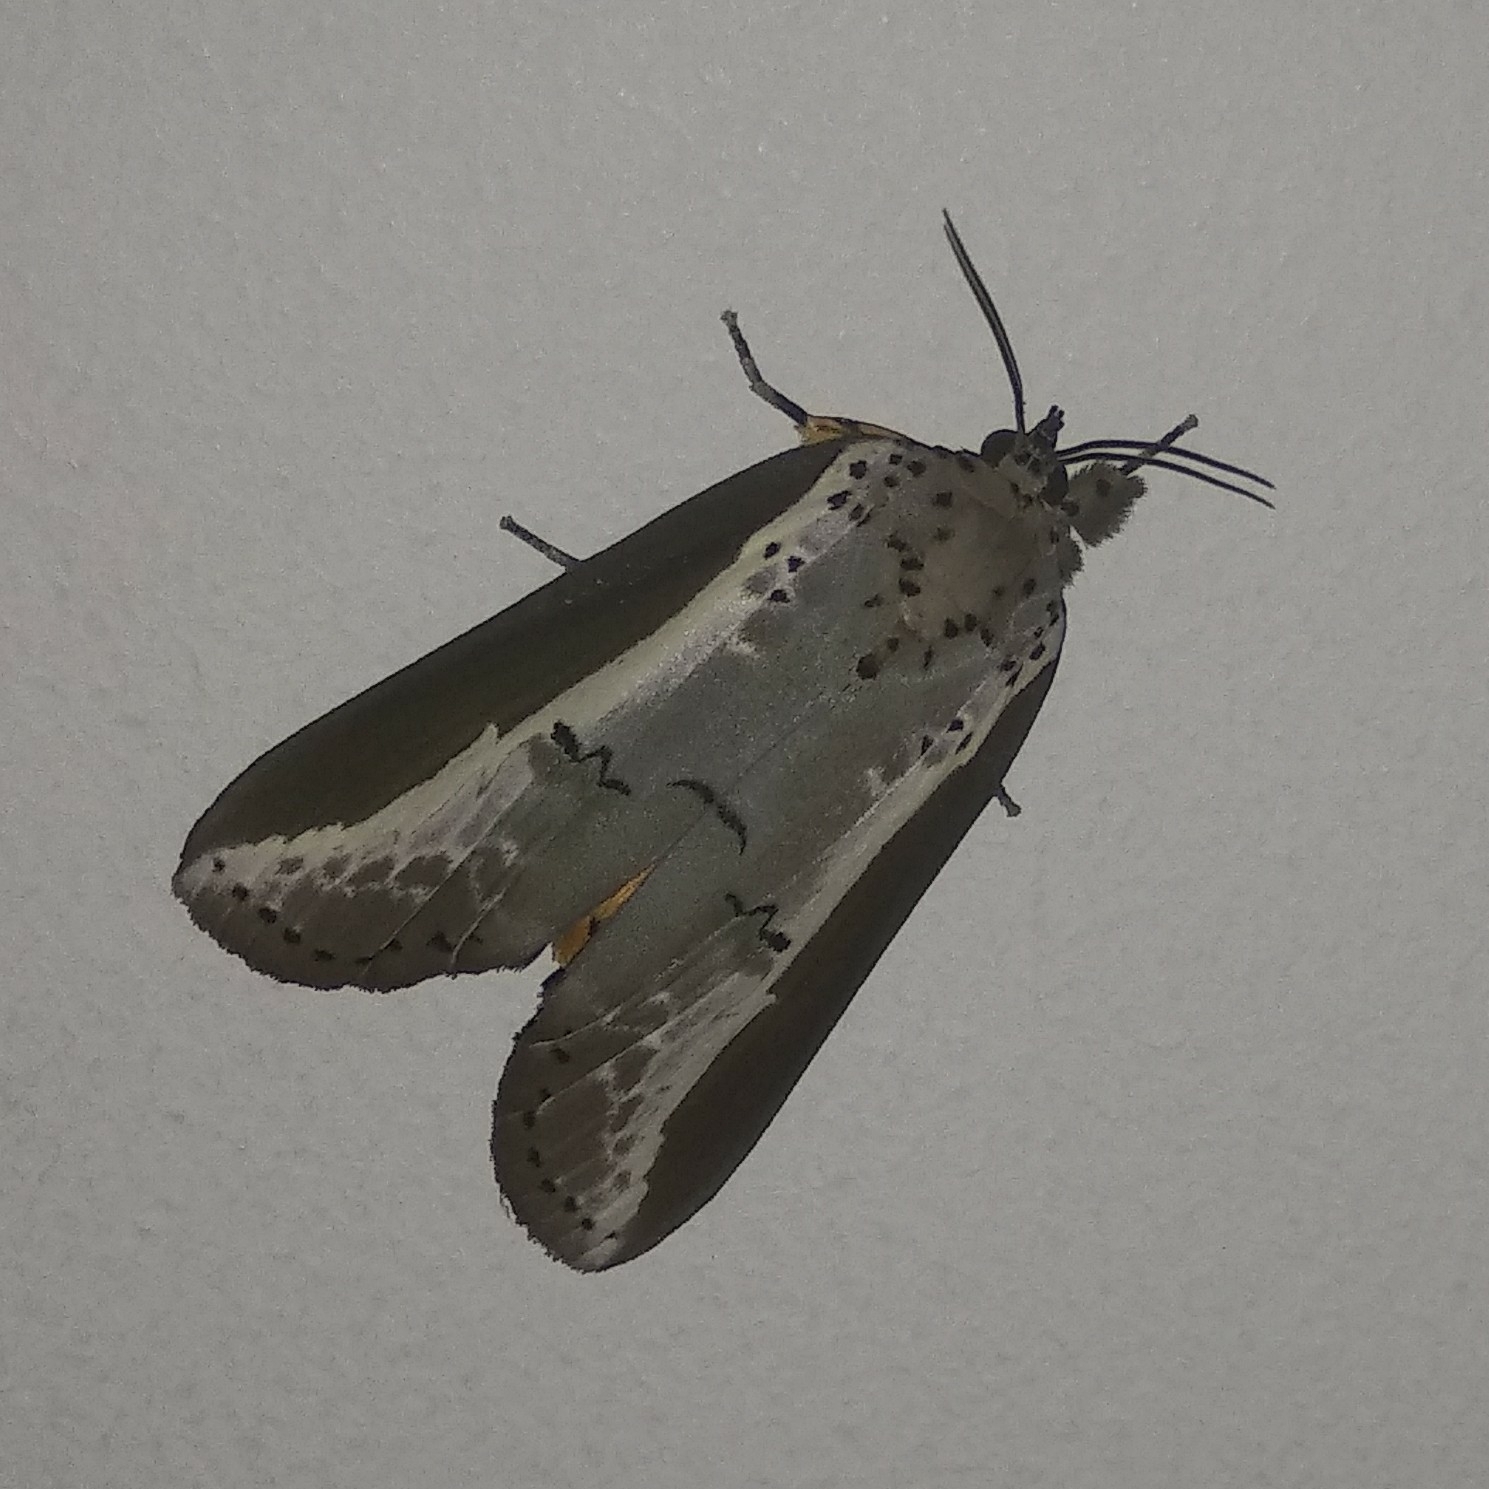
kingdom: Animalia
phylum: Arthropoda
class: Insecta
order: Lepidoptera
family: Nolidae
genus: Eligma
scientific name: Eligma narcissus
